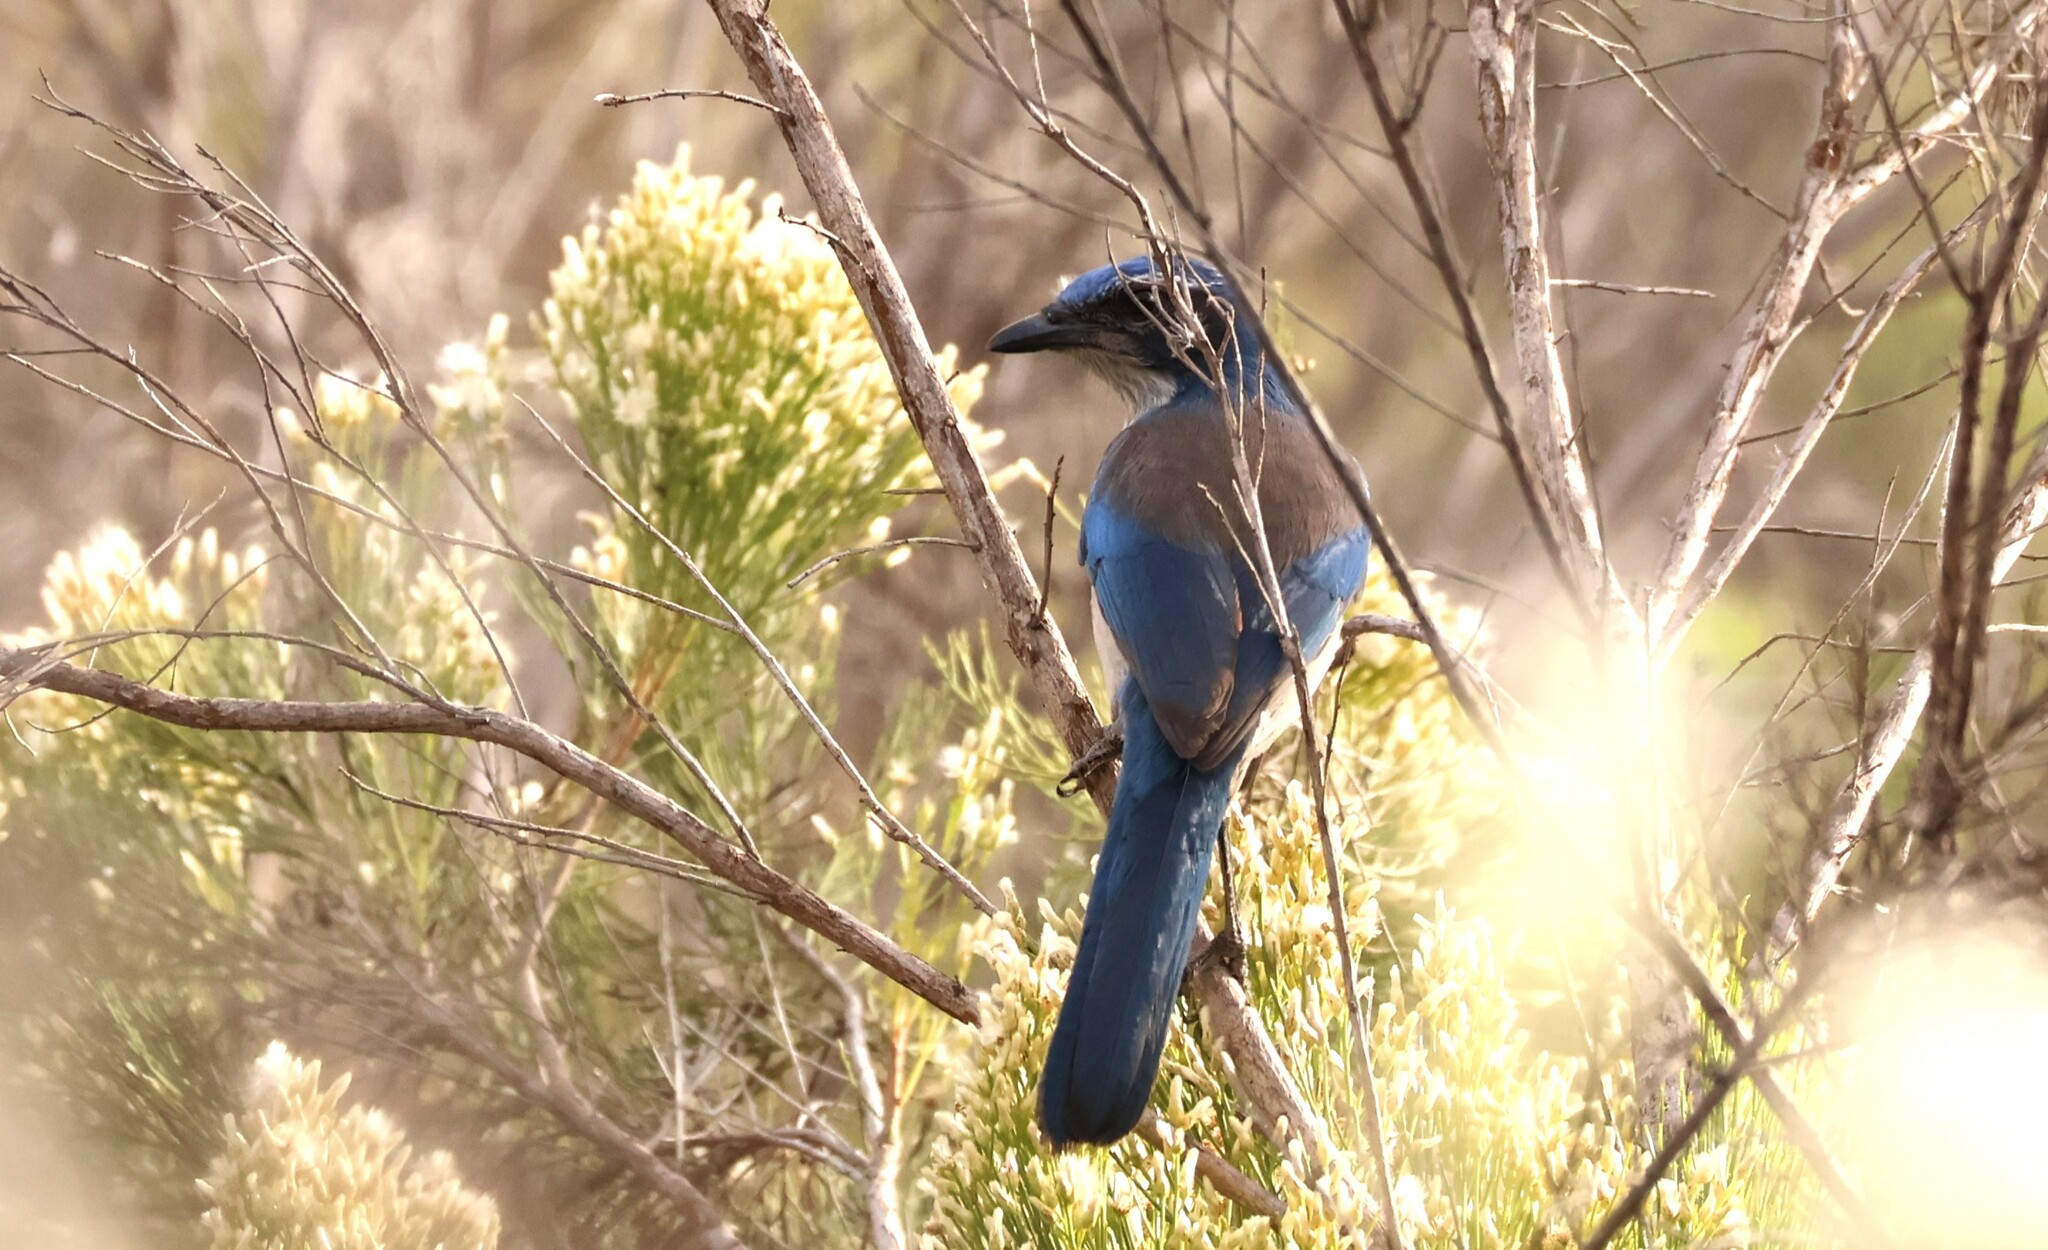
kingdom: Animalia
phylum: Chordata
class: Aves
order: Passeriformes
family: Corvidae
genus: Aphelocoma
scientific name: Aphelocoma californica
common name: California scrub-jay
